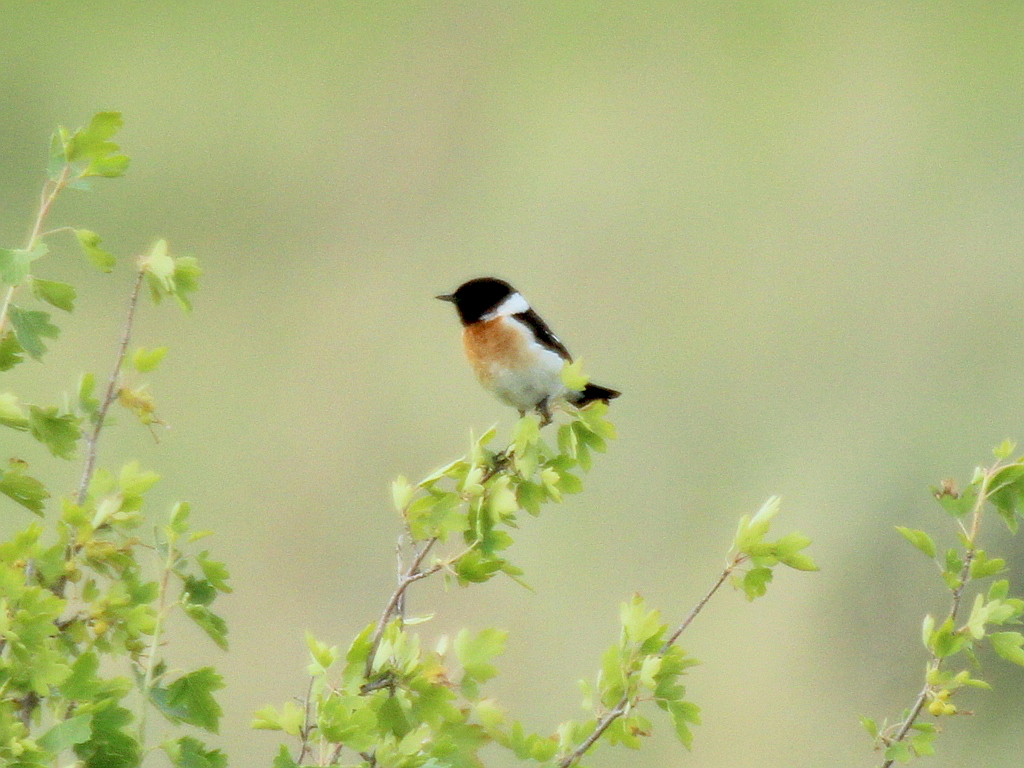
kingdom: Animalia
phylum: Chordata
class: Aves
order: Passeriformes
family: Muscicapidae
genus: Saxicola
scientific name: Saxicola maurus
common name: Siberian stonechat
